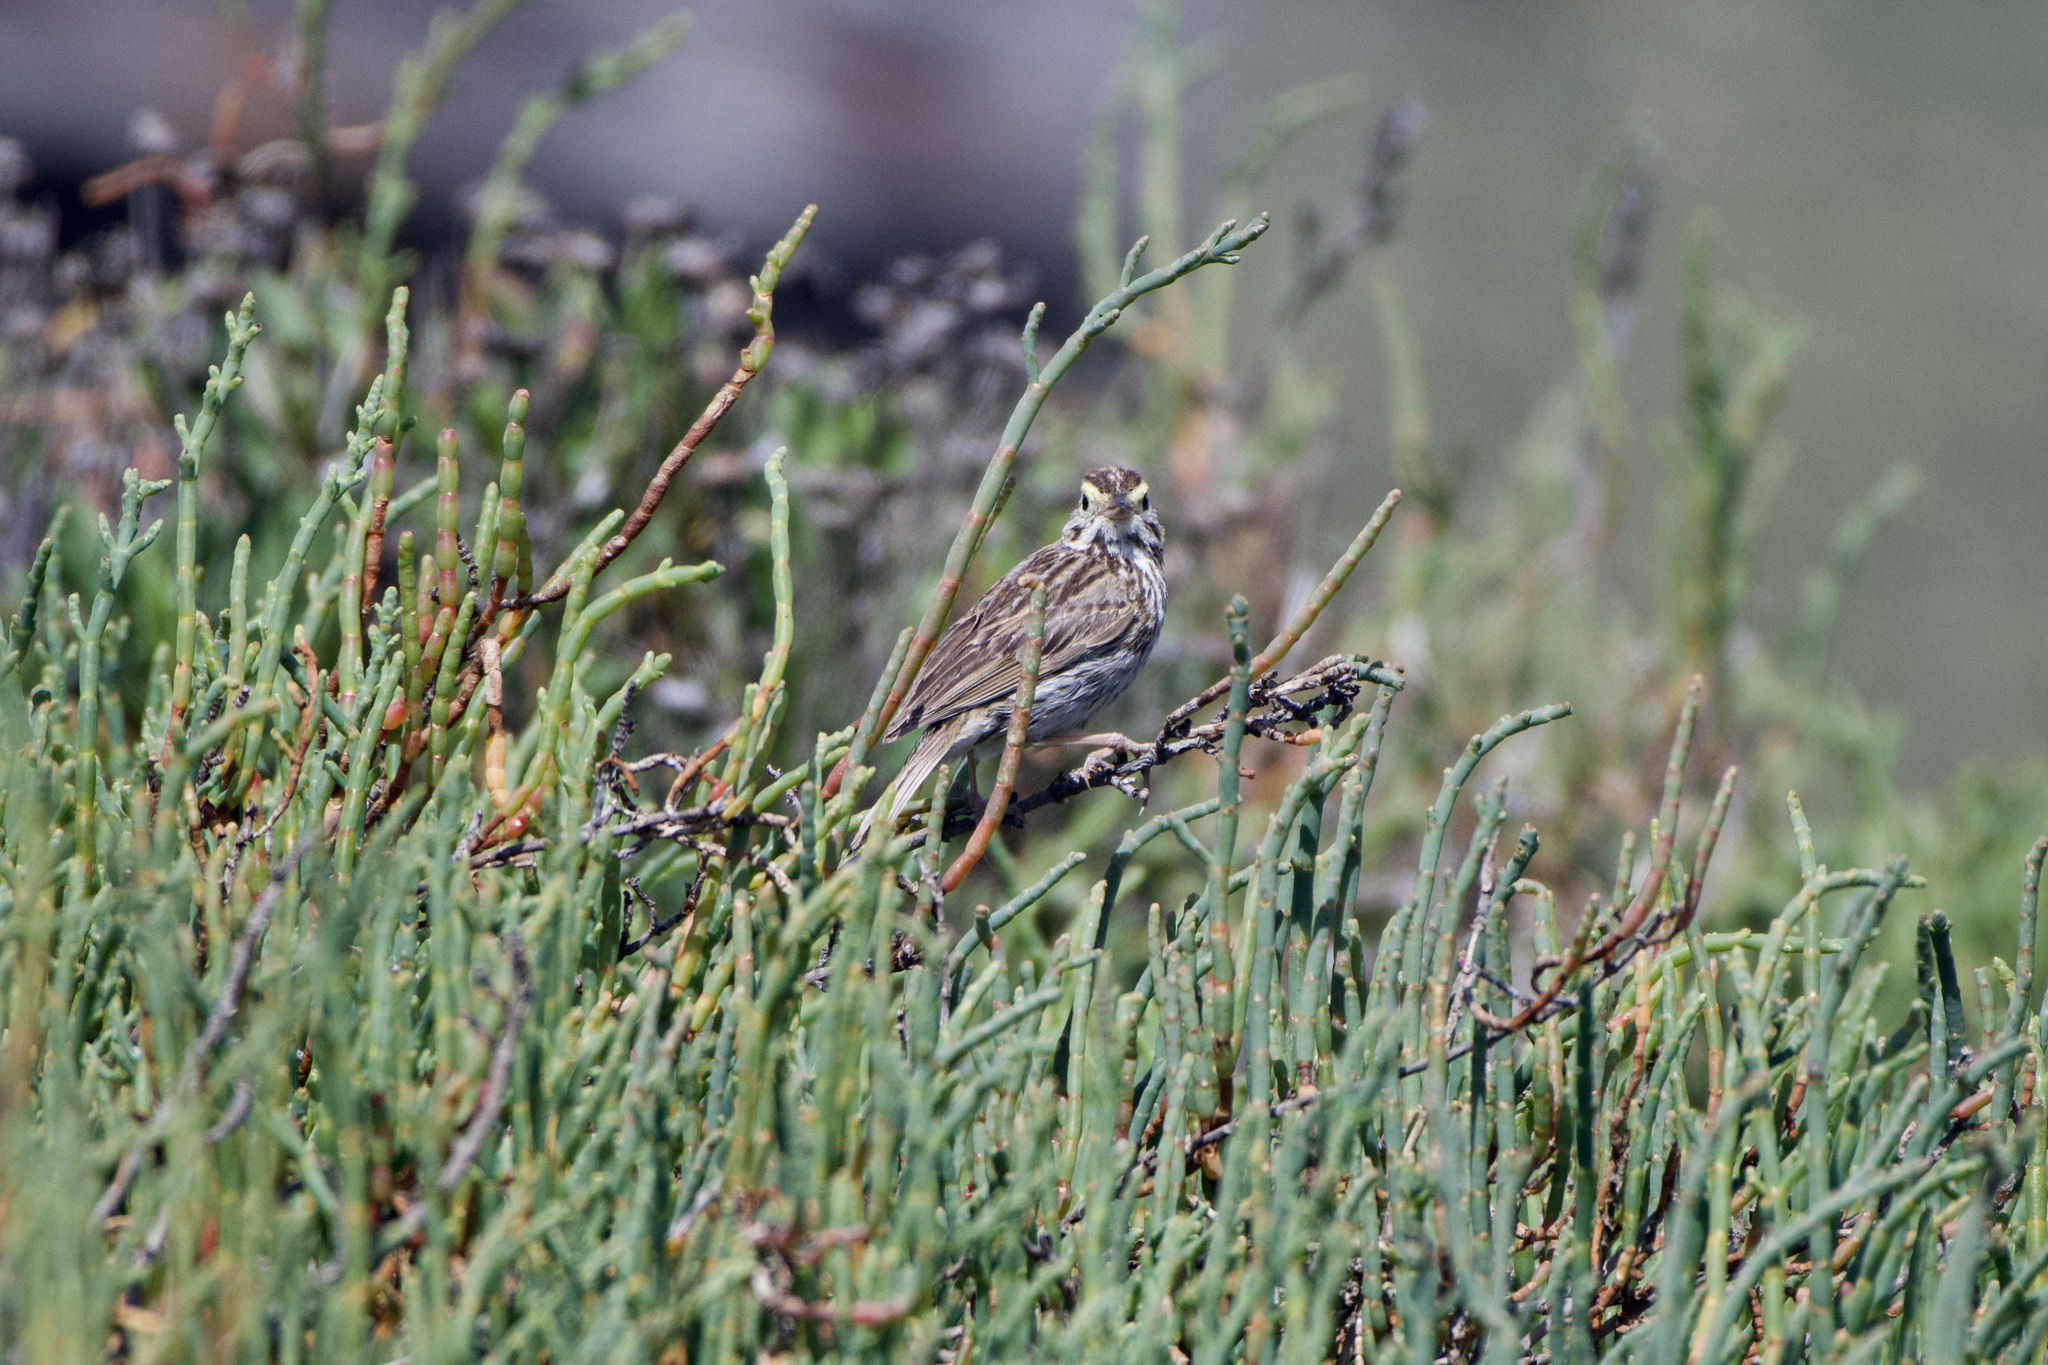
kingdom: Animalia
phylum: Chordata
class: Aves
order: Passeriformes
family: Passerellidae
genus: Passerculus
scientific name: Passerculus sandwichensis
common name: Savannah sparrow
